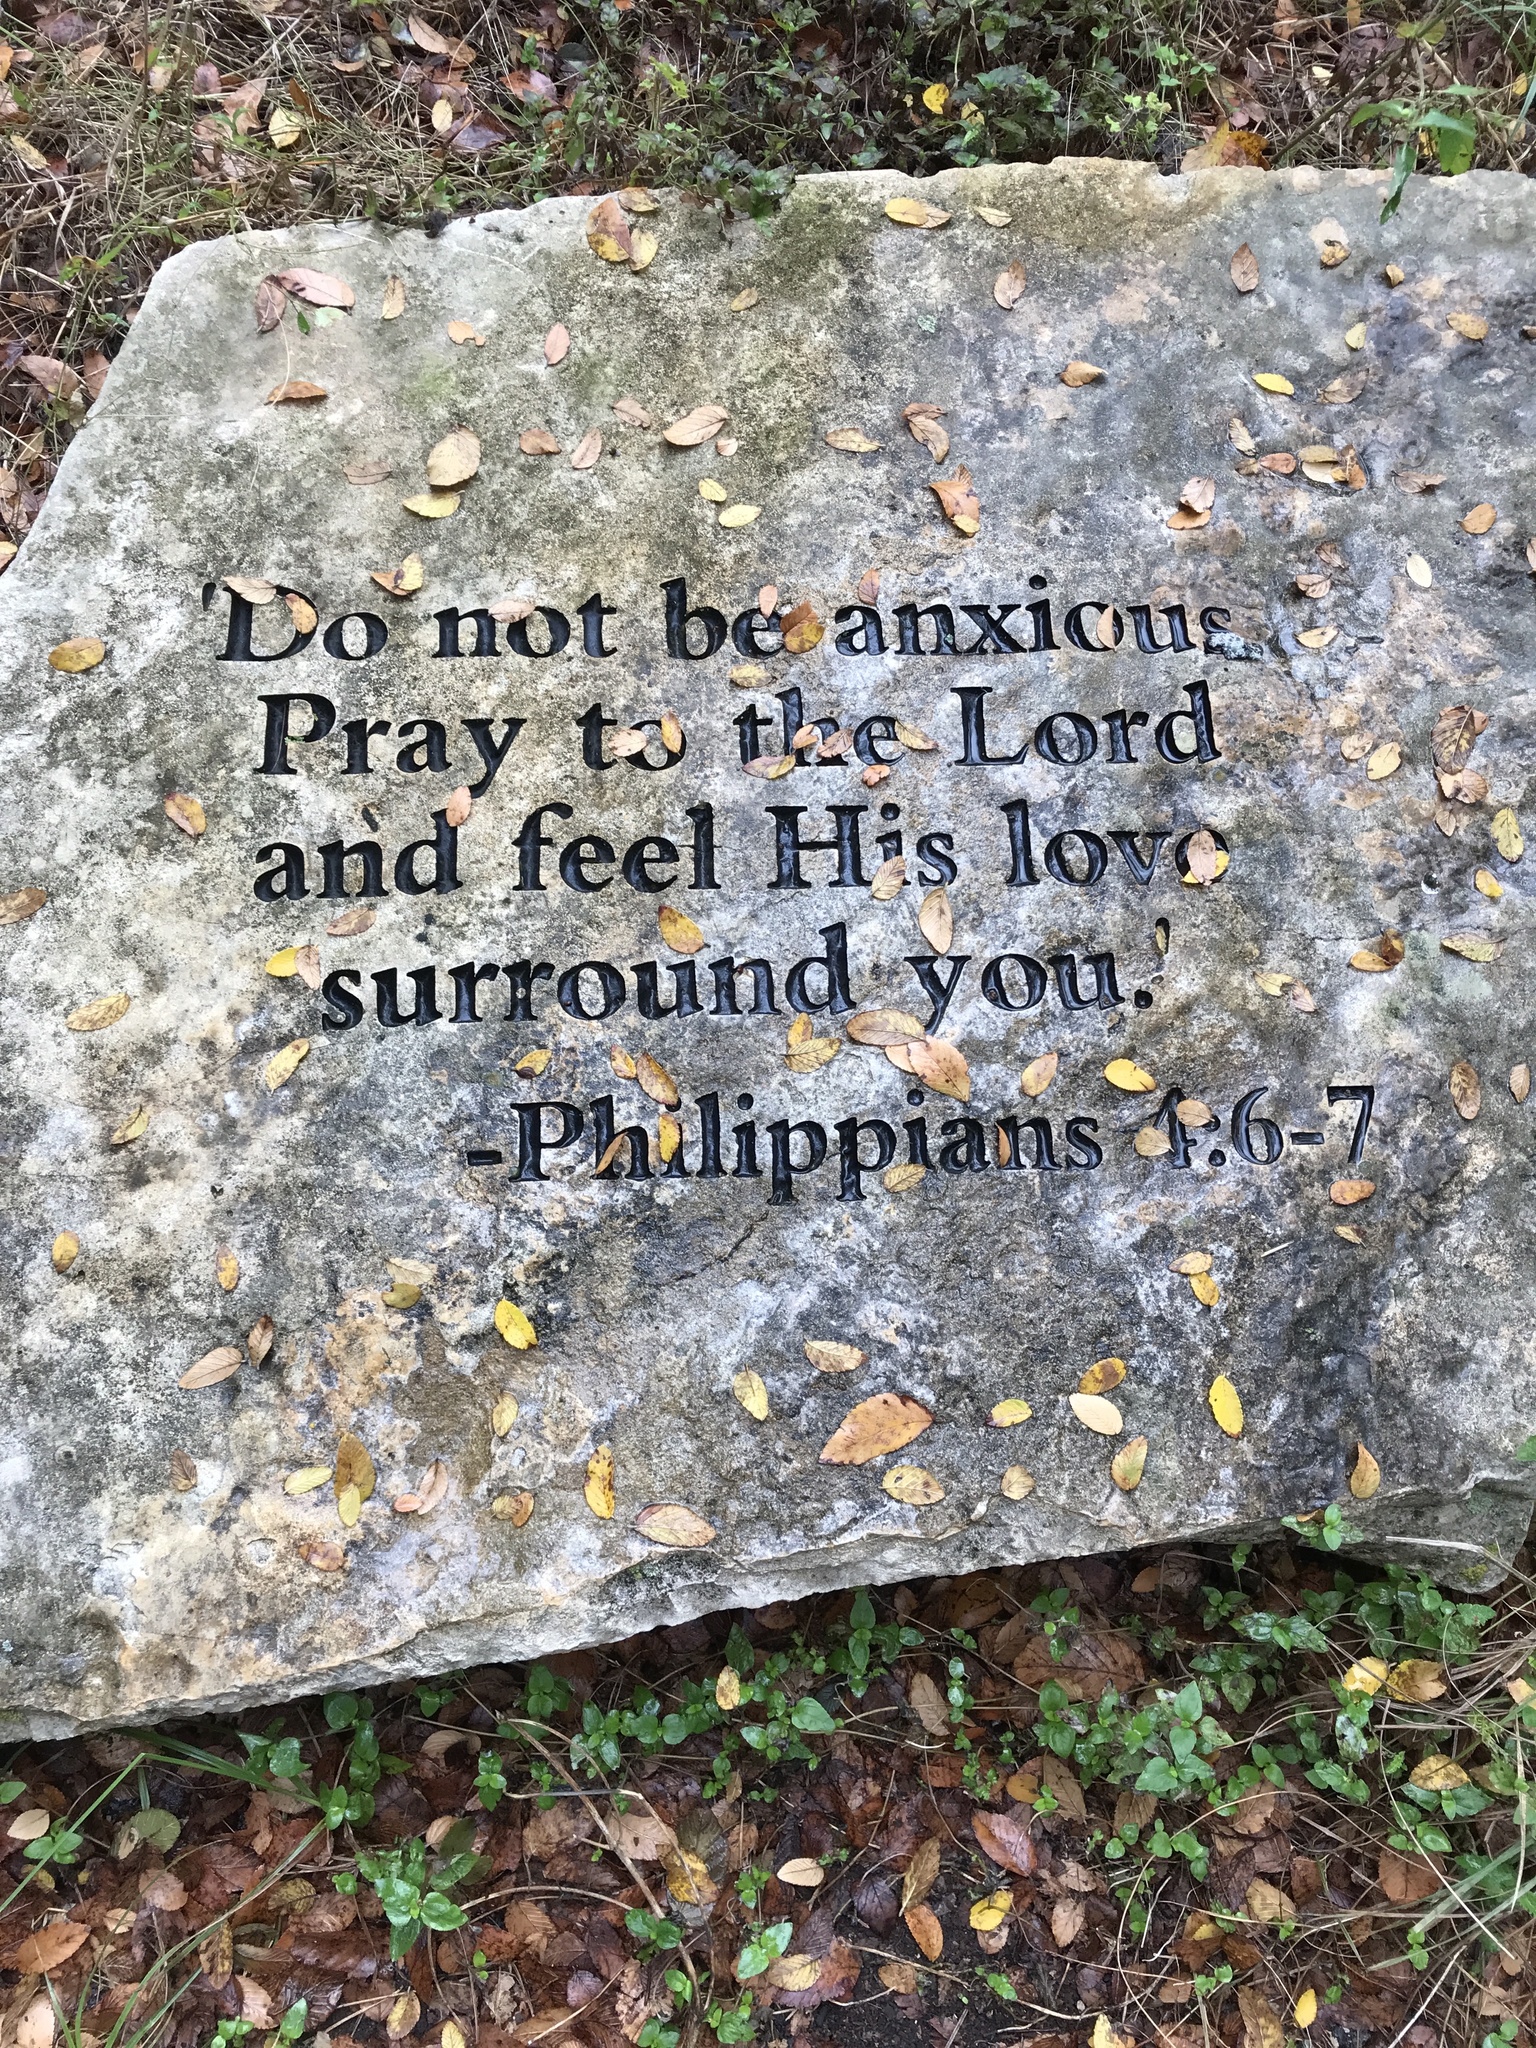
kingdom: Plantae
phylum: Tracheophyta
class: Magnoliopsida
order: Rosales
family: Ulmaceae
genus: Ulmus
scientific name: Ulmus crassifolia
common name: Basket elm
